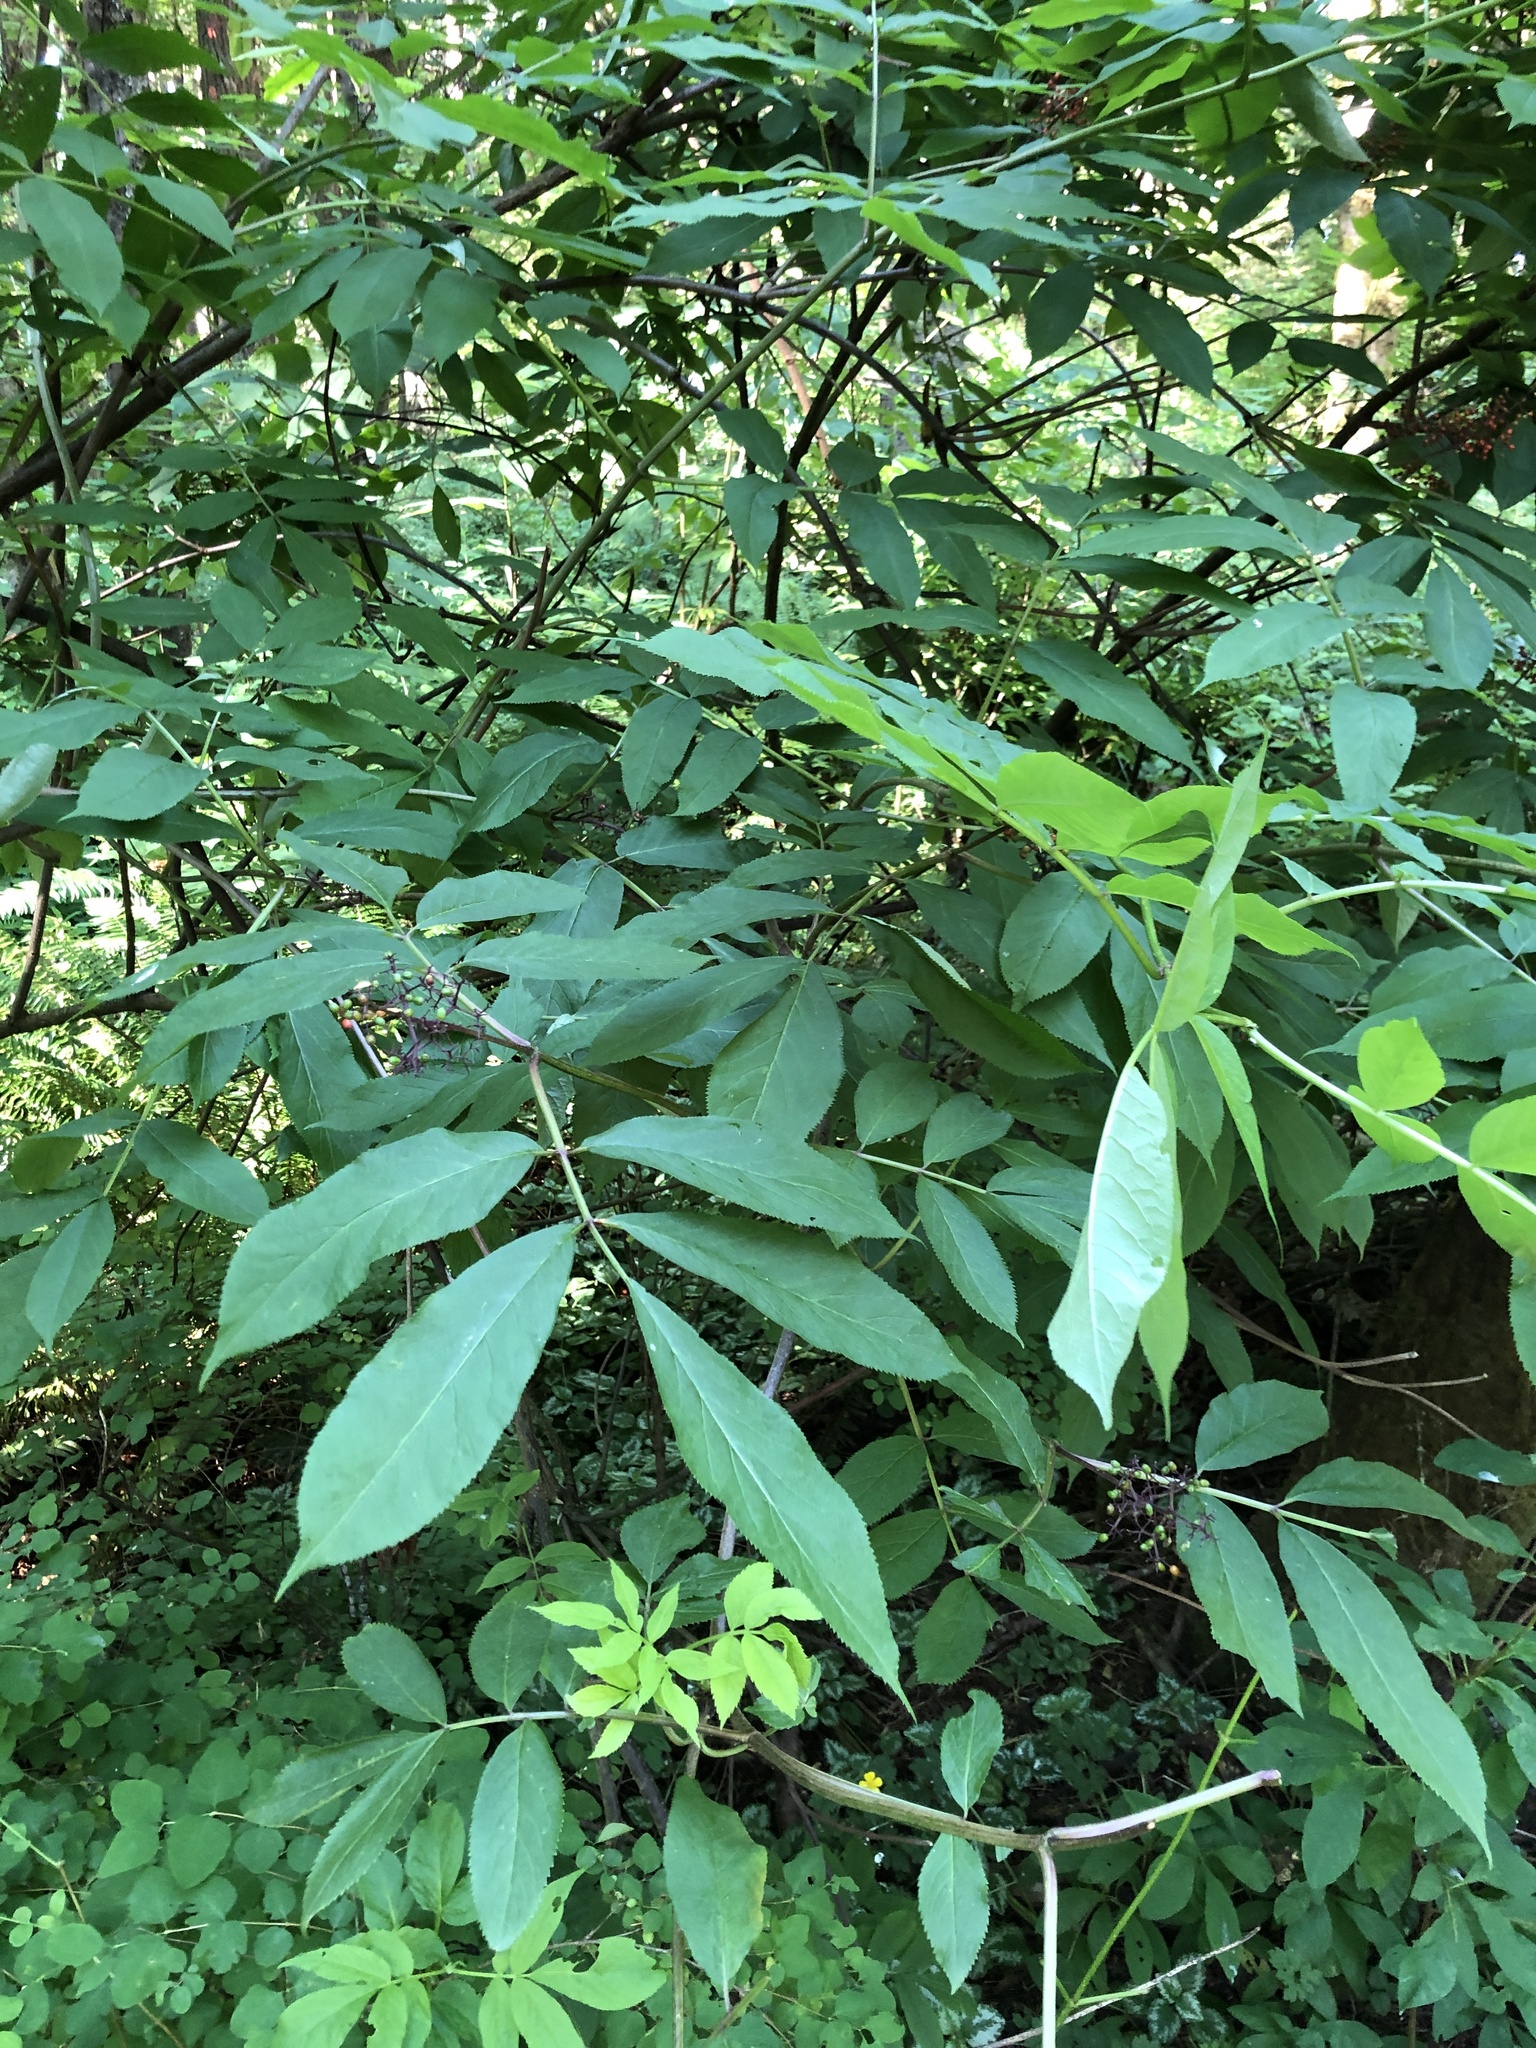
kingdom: Plantae
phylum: Tracheophyta
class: Magnoliopsida
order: Dipsacales
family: Viburnaceae
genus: Sambucus
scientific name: Sambucus racemosa
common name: Red-berried elder
